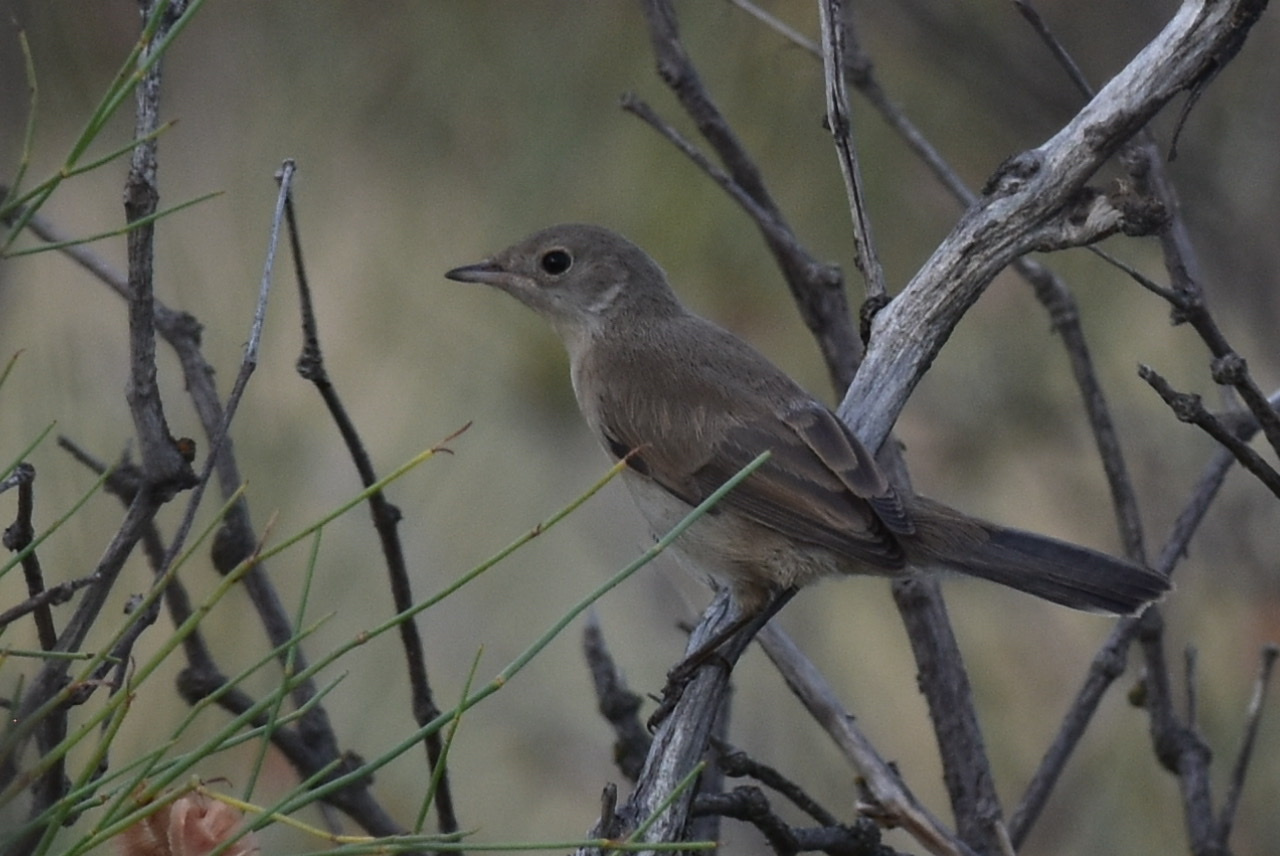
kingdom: Animalia
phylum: Chordata
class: Aves
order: Passeriformes
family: Sylviidae
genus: Sylvia
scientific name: Sylvia mystacea
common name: Menetries's warbler
